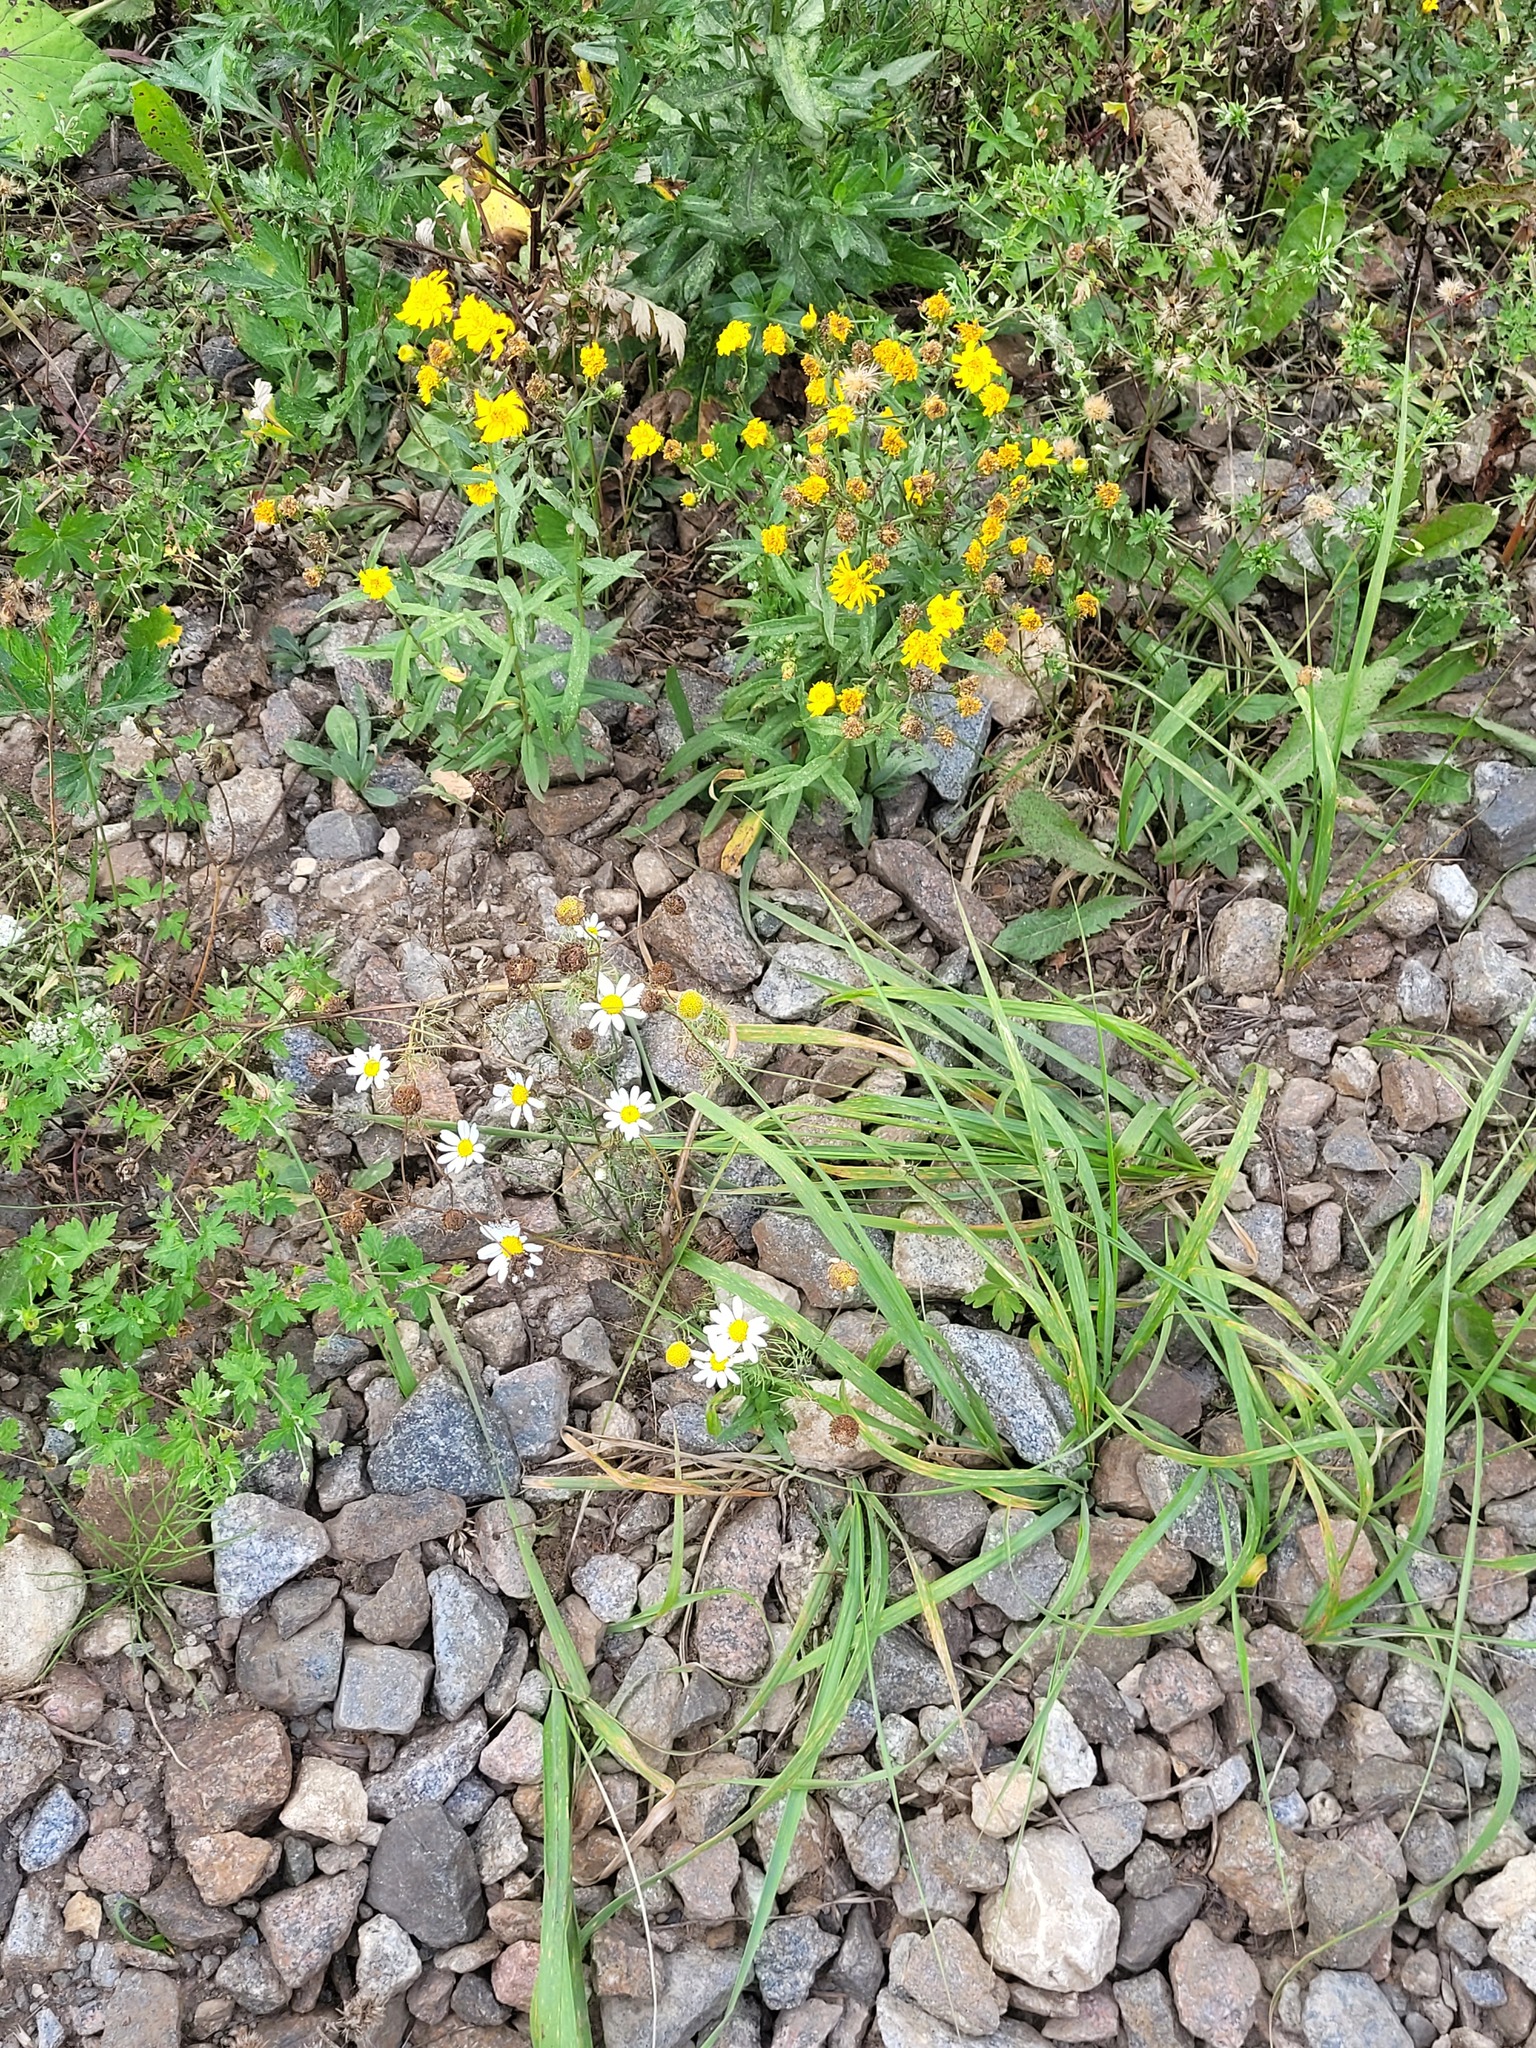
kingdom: Plantae
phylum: Tracheophyta
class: Magnoliopsida
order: Asterales
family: Asteraceae
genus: Tripleurospermum
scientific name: Tripleurospermum inodorum
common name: Scentless mayweed
